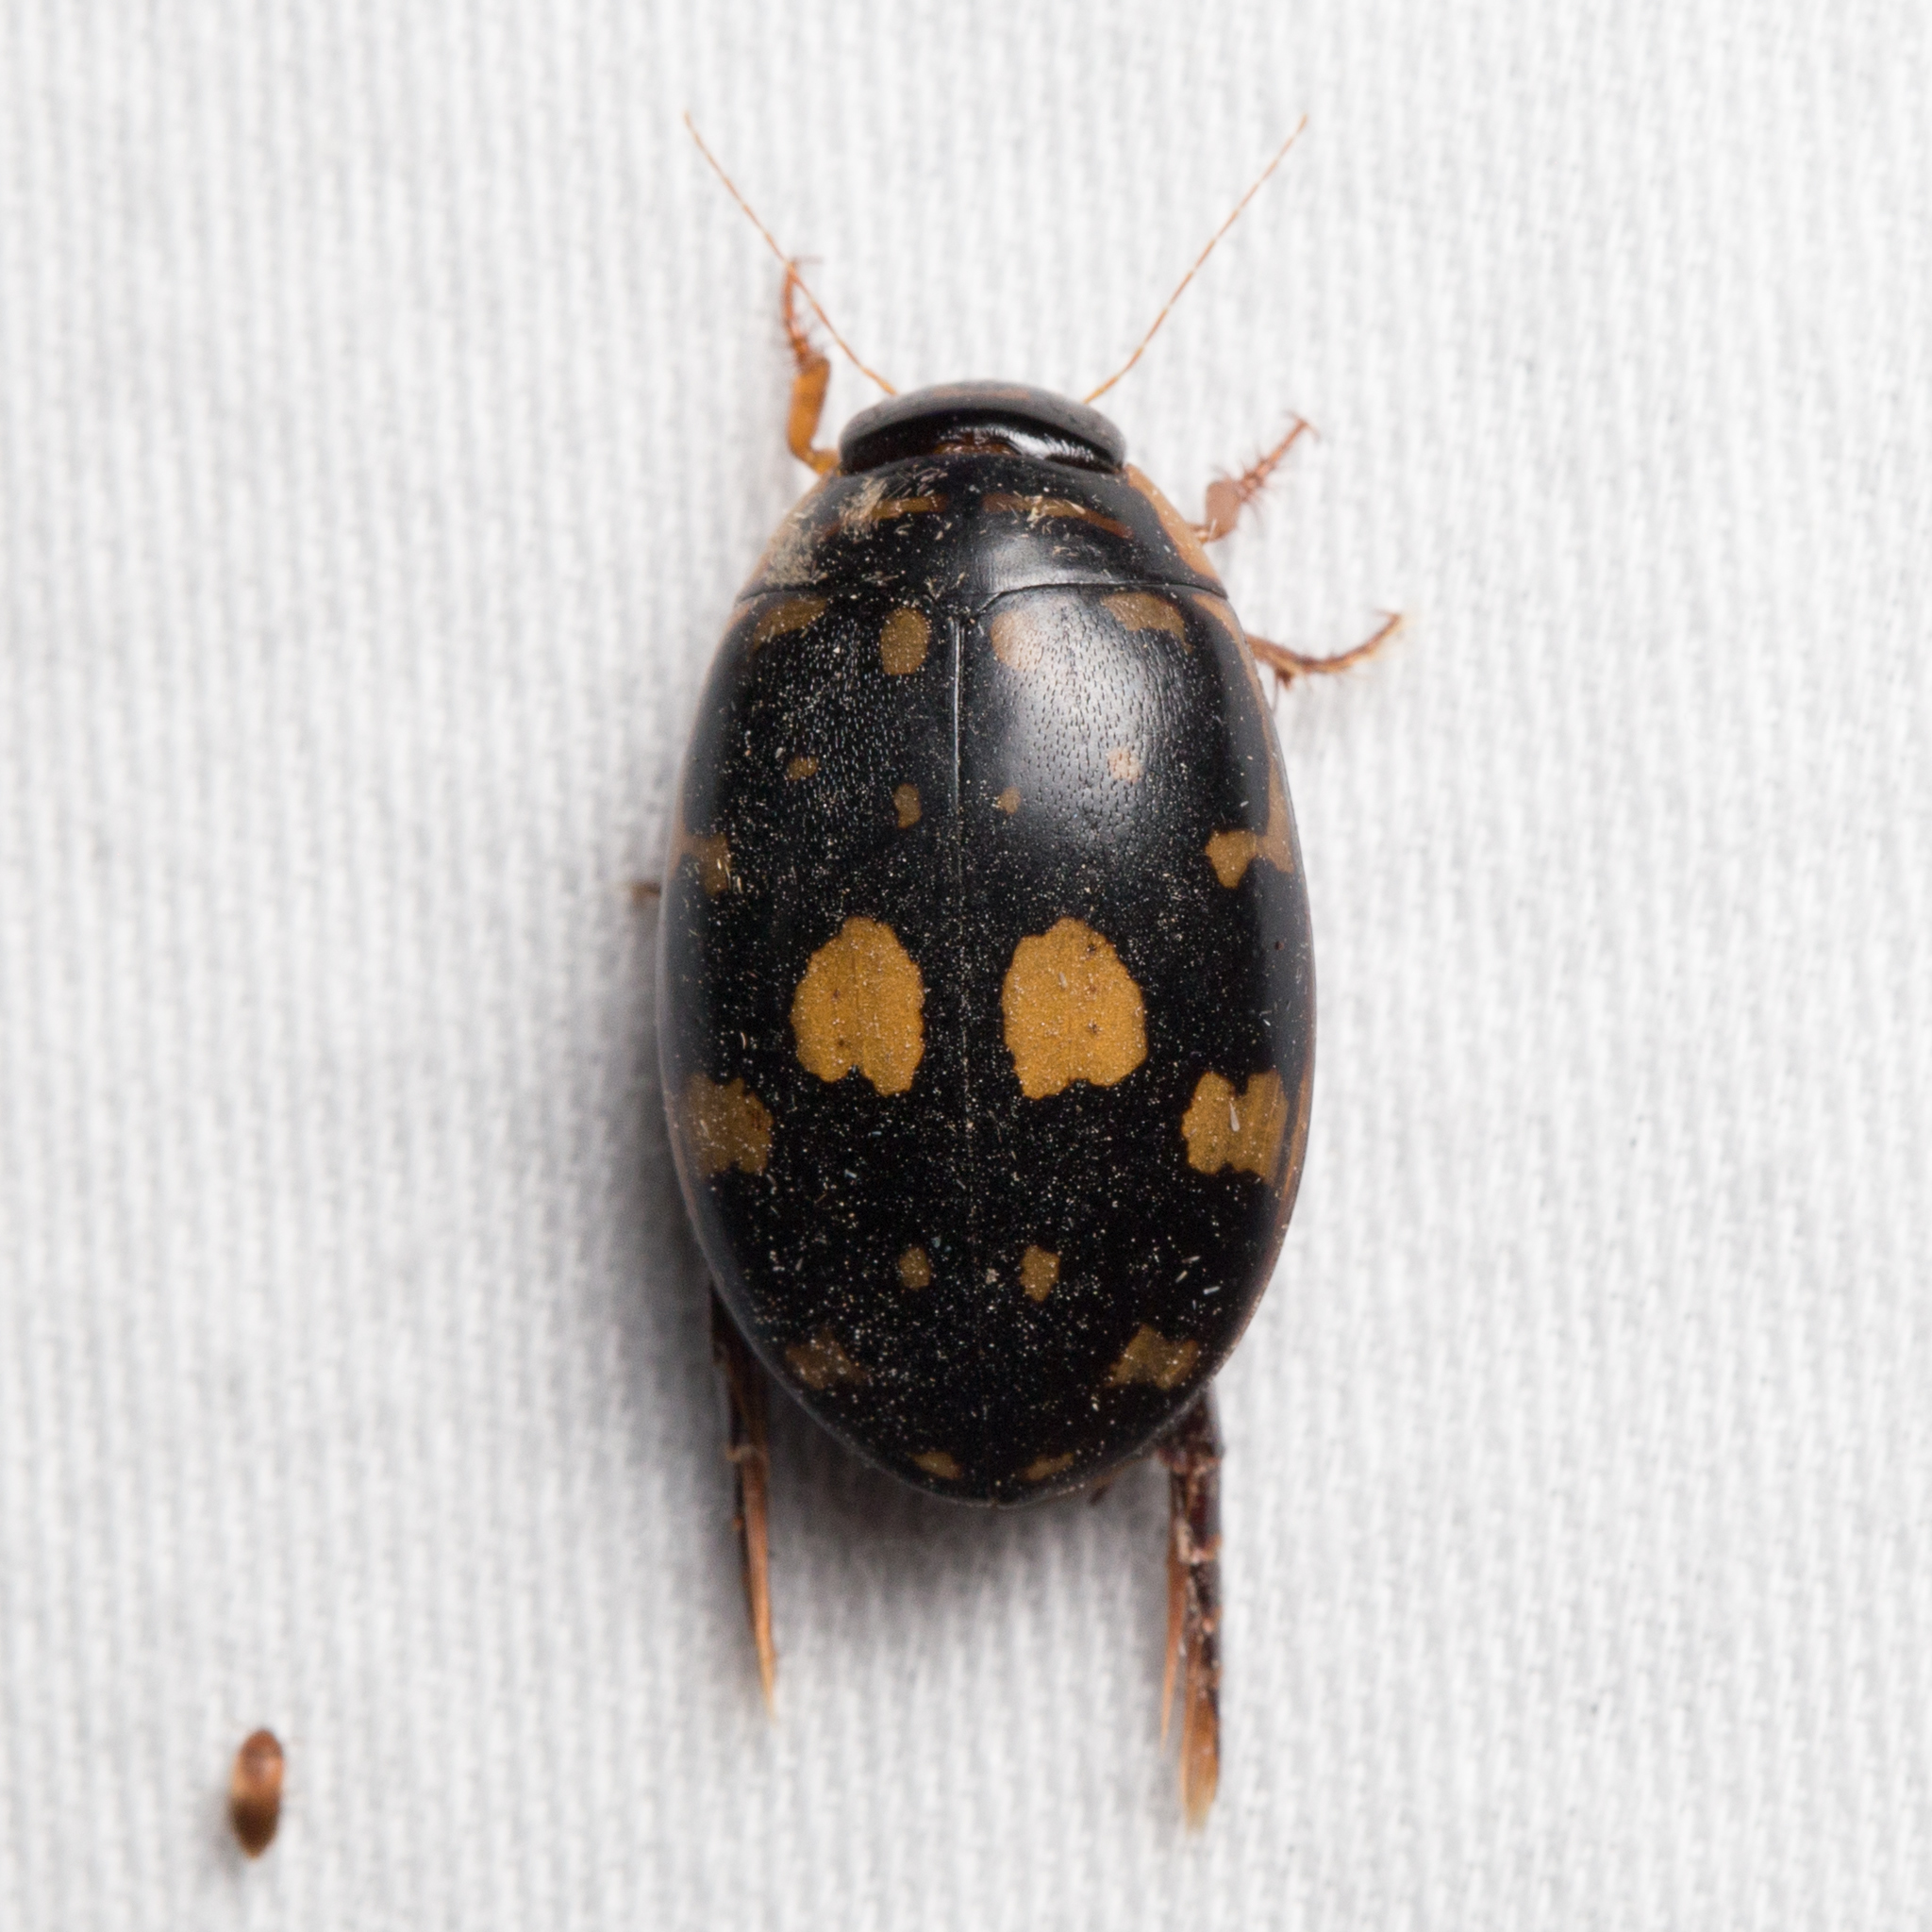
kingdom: Animalia
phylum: Arthropoda
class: Insecta
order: Coleoptera
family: Dytiscidae
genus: Thermonectus
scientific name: Thermonectus marmoratus
